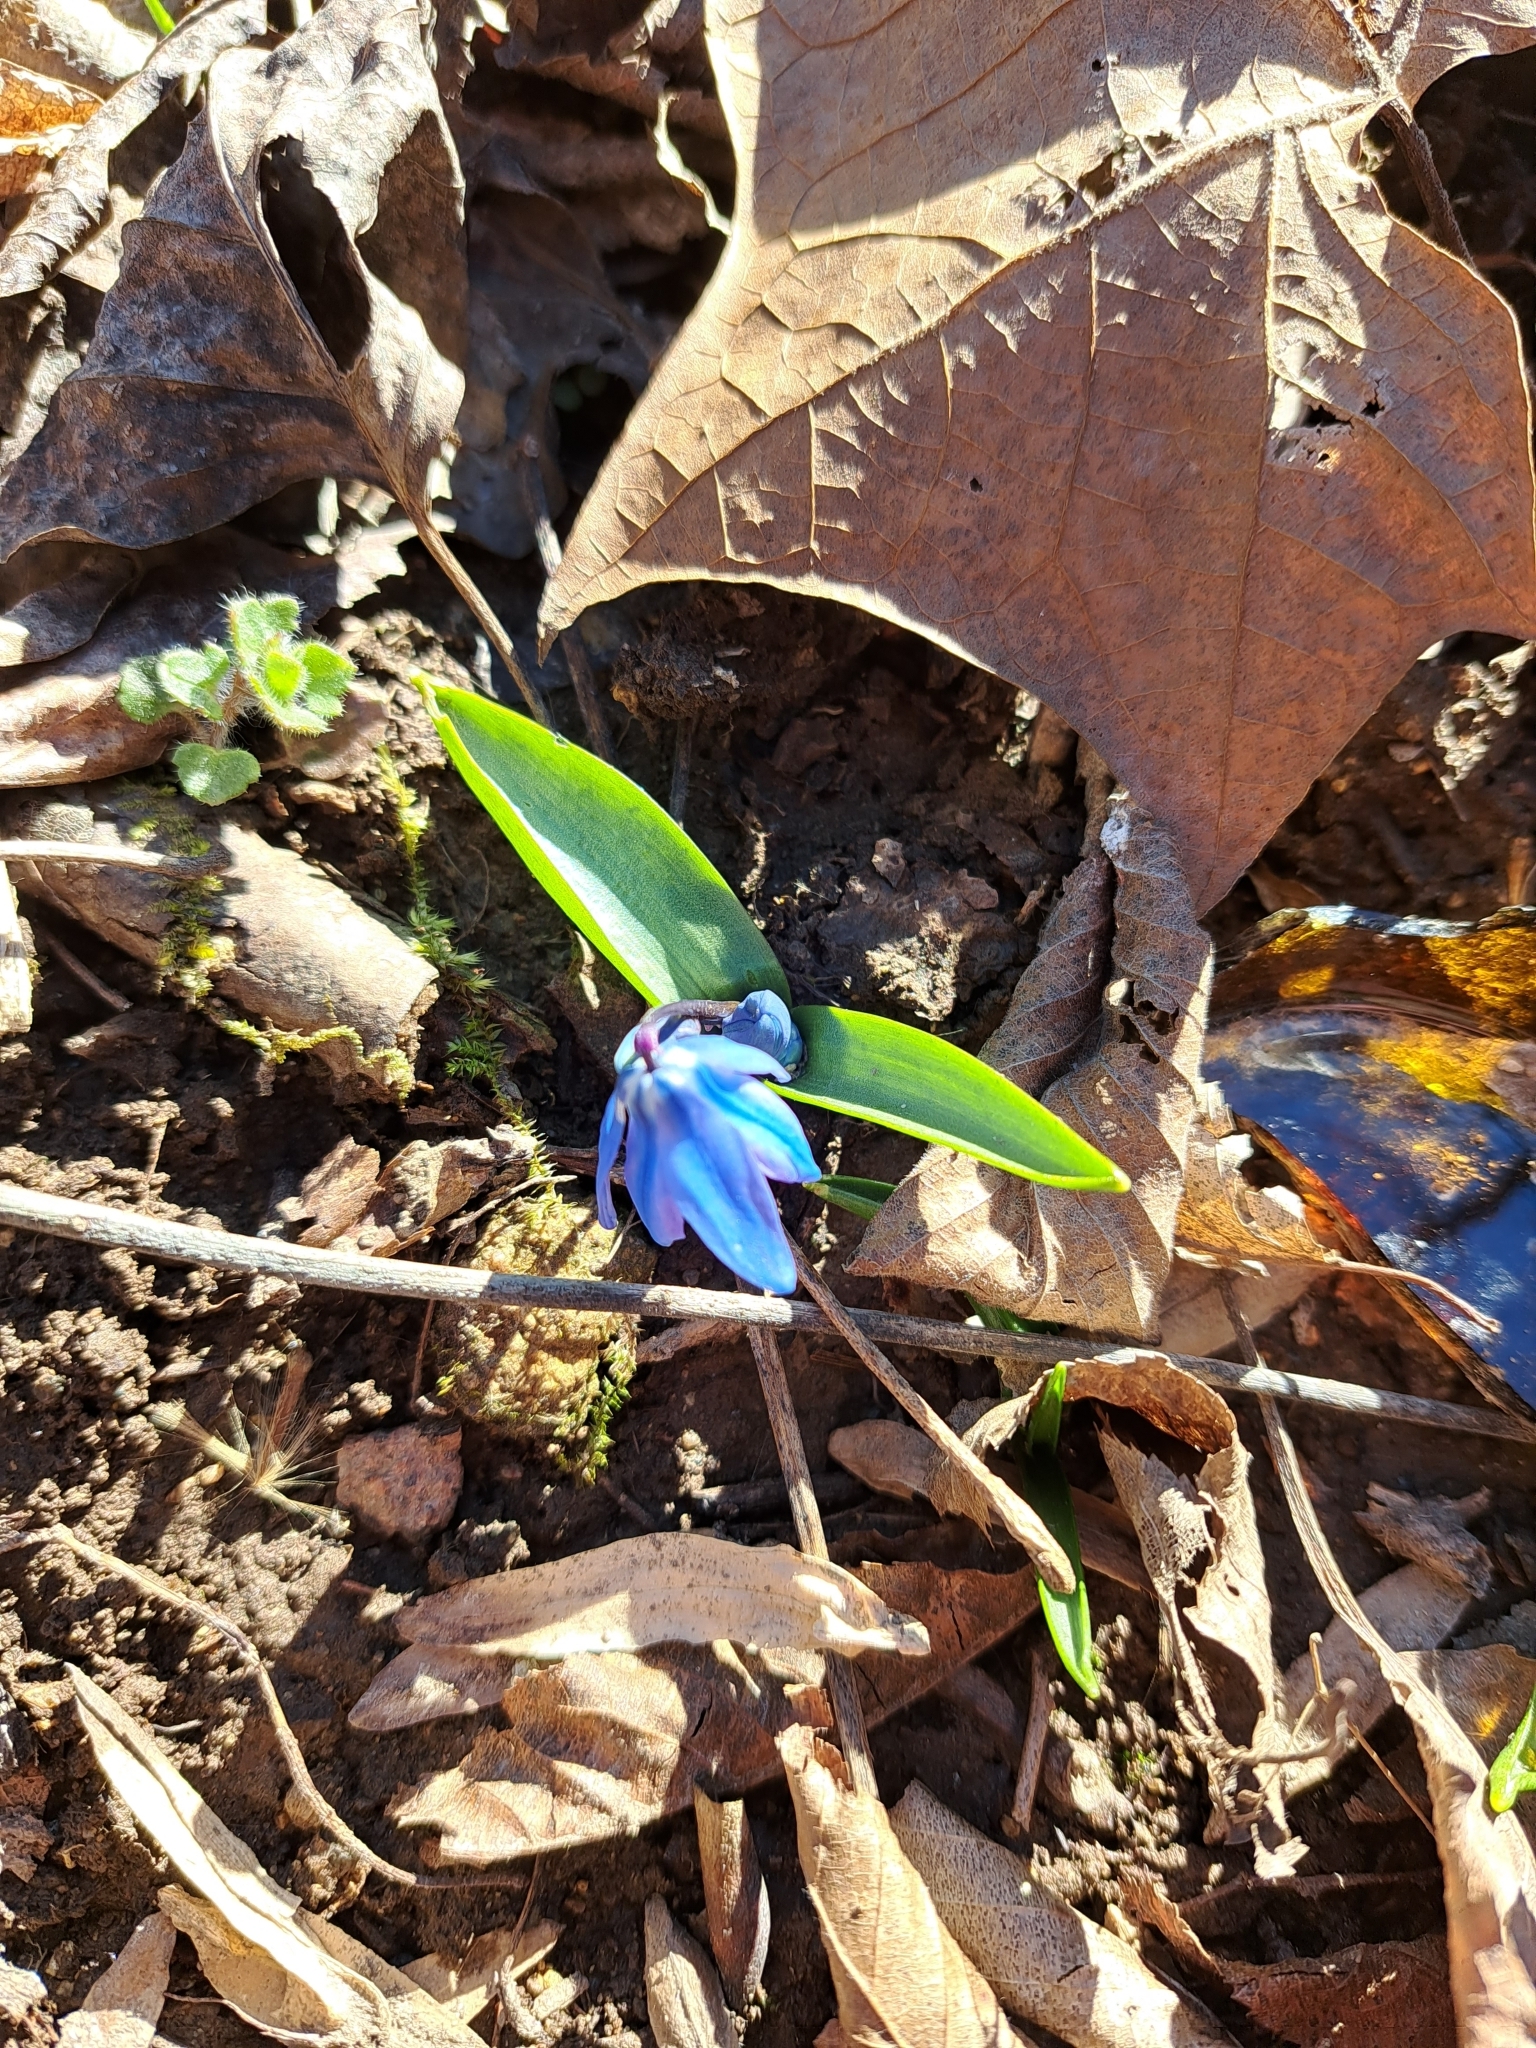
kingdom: Plantae
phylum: Tracheophyta
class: Liliopsida
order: Asparagales
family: Asparagaceae
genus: Scilla
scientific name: Scilla siberica
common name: Siberian squill
